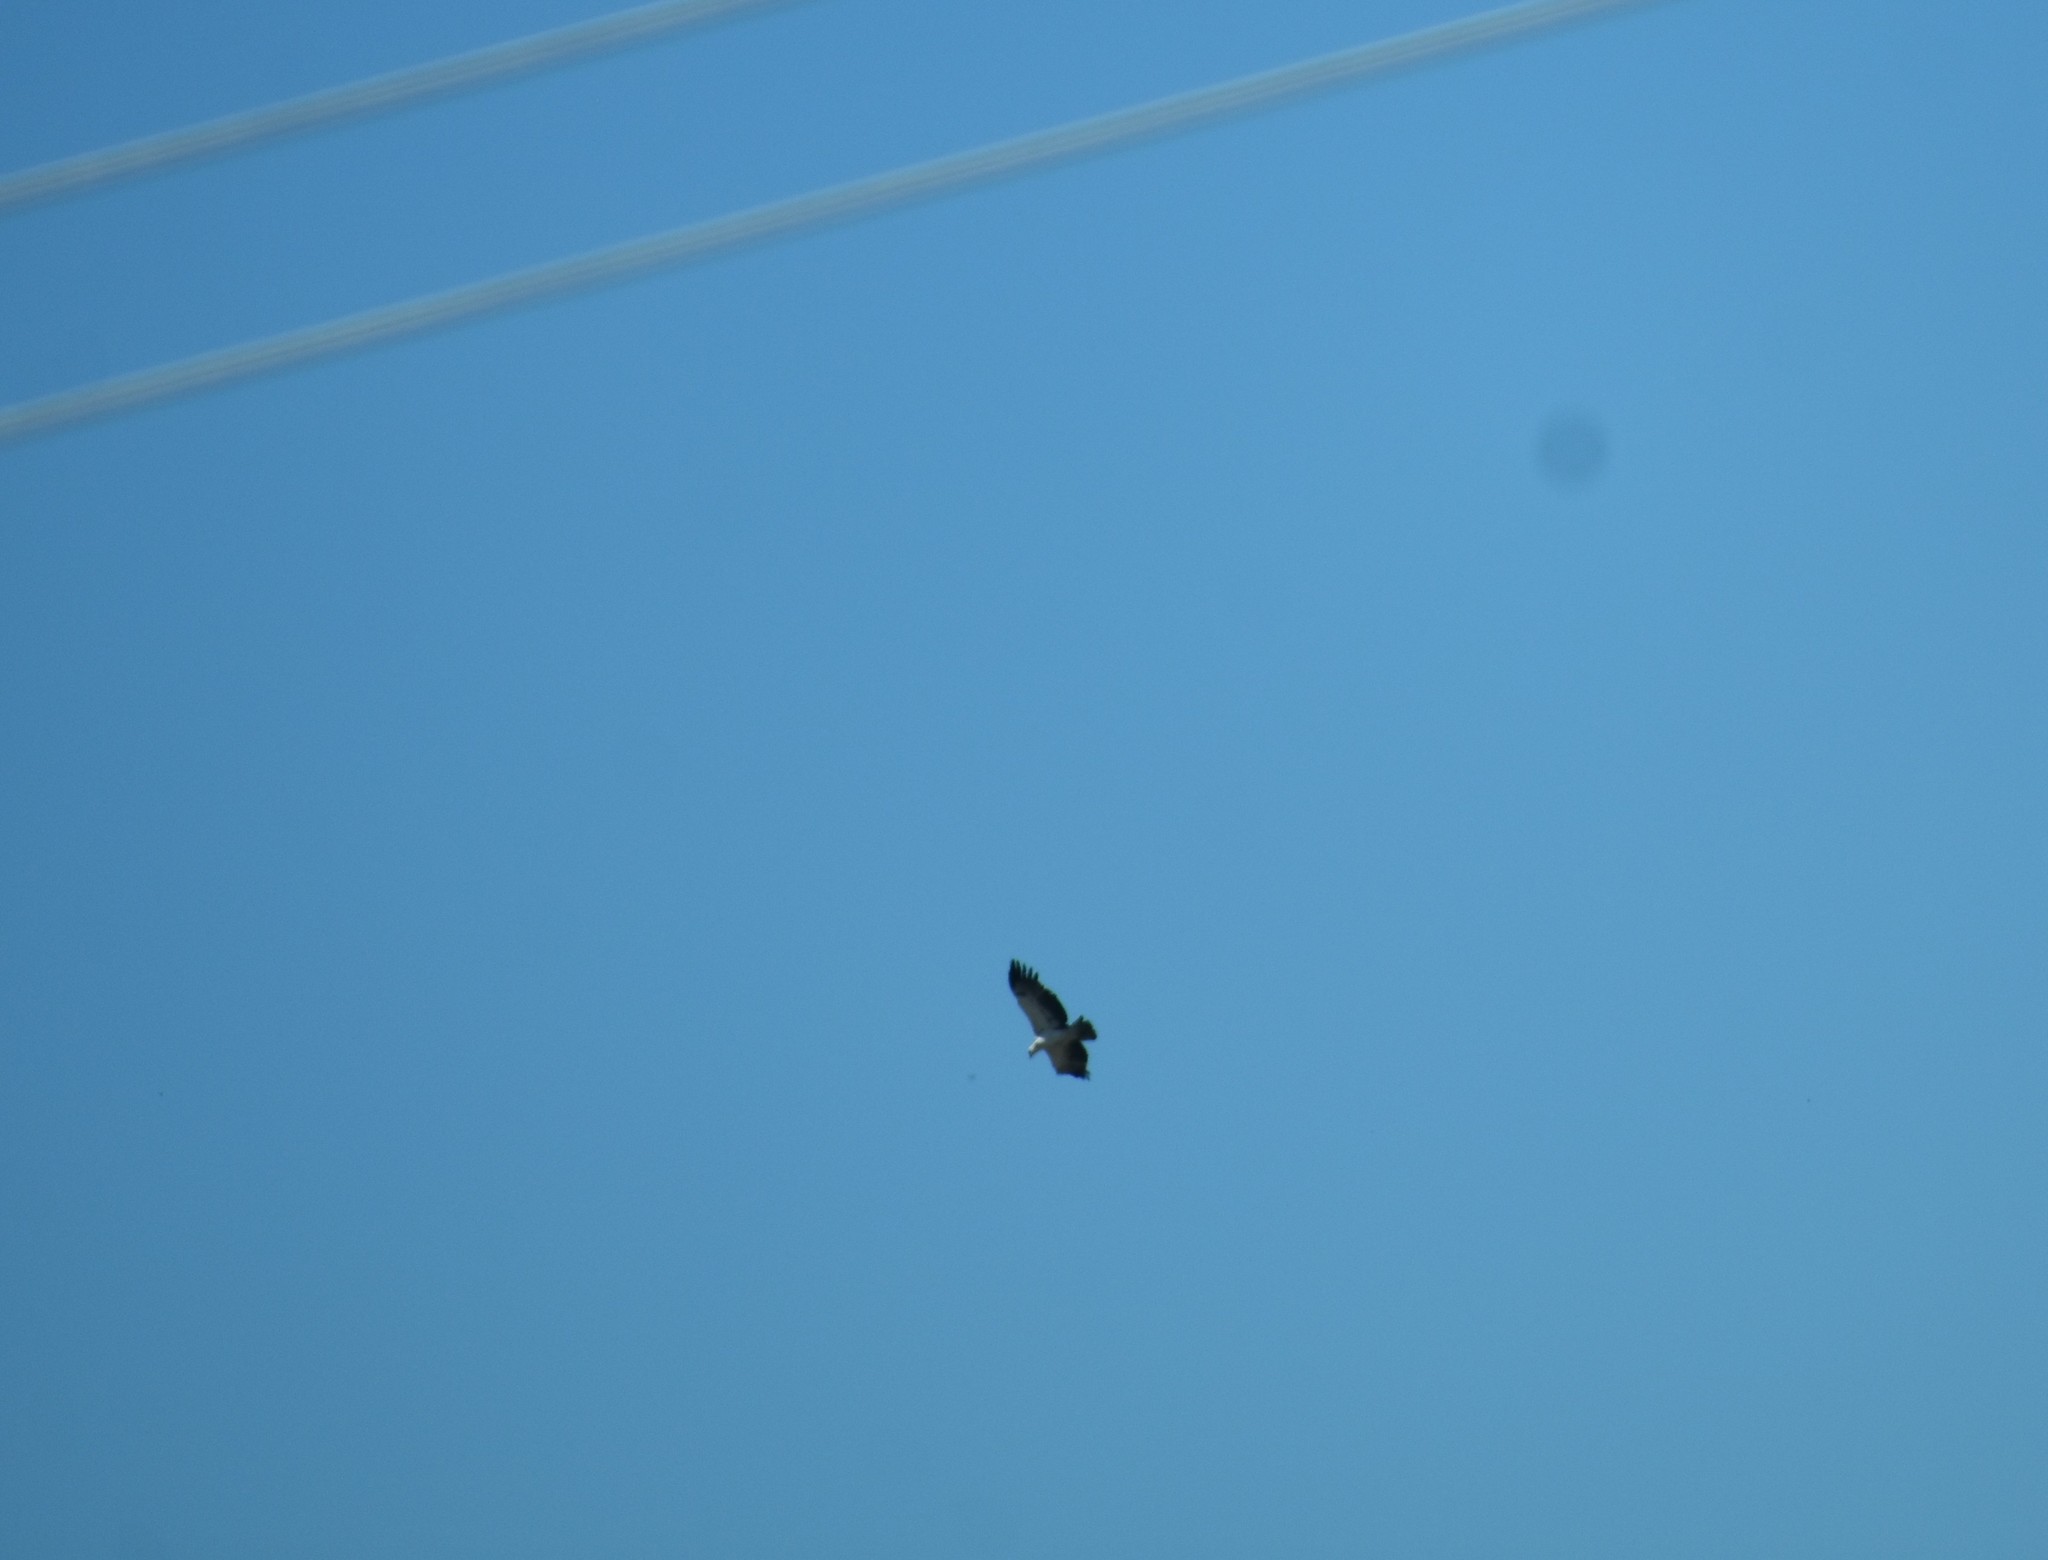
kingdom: Animalia
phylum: Chordata
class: Aves
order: Accipitriformes
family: Accipitridae
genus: Polemaetus
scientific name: Polemaetus bellicosus
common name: Martial eagle
